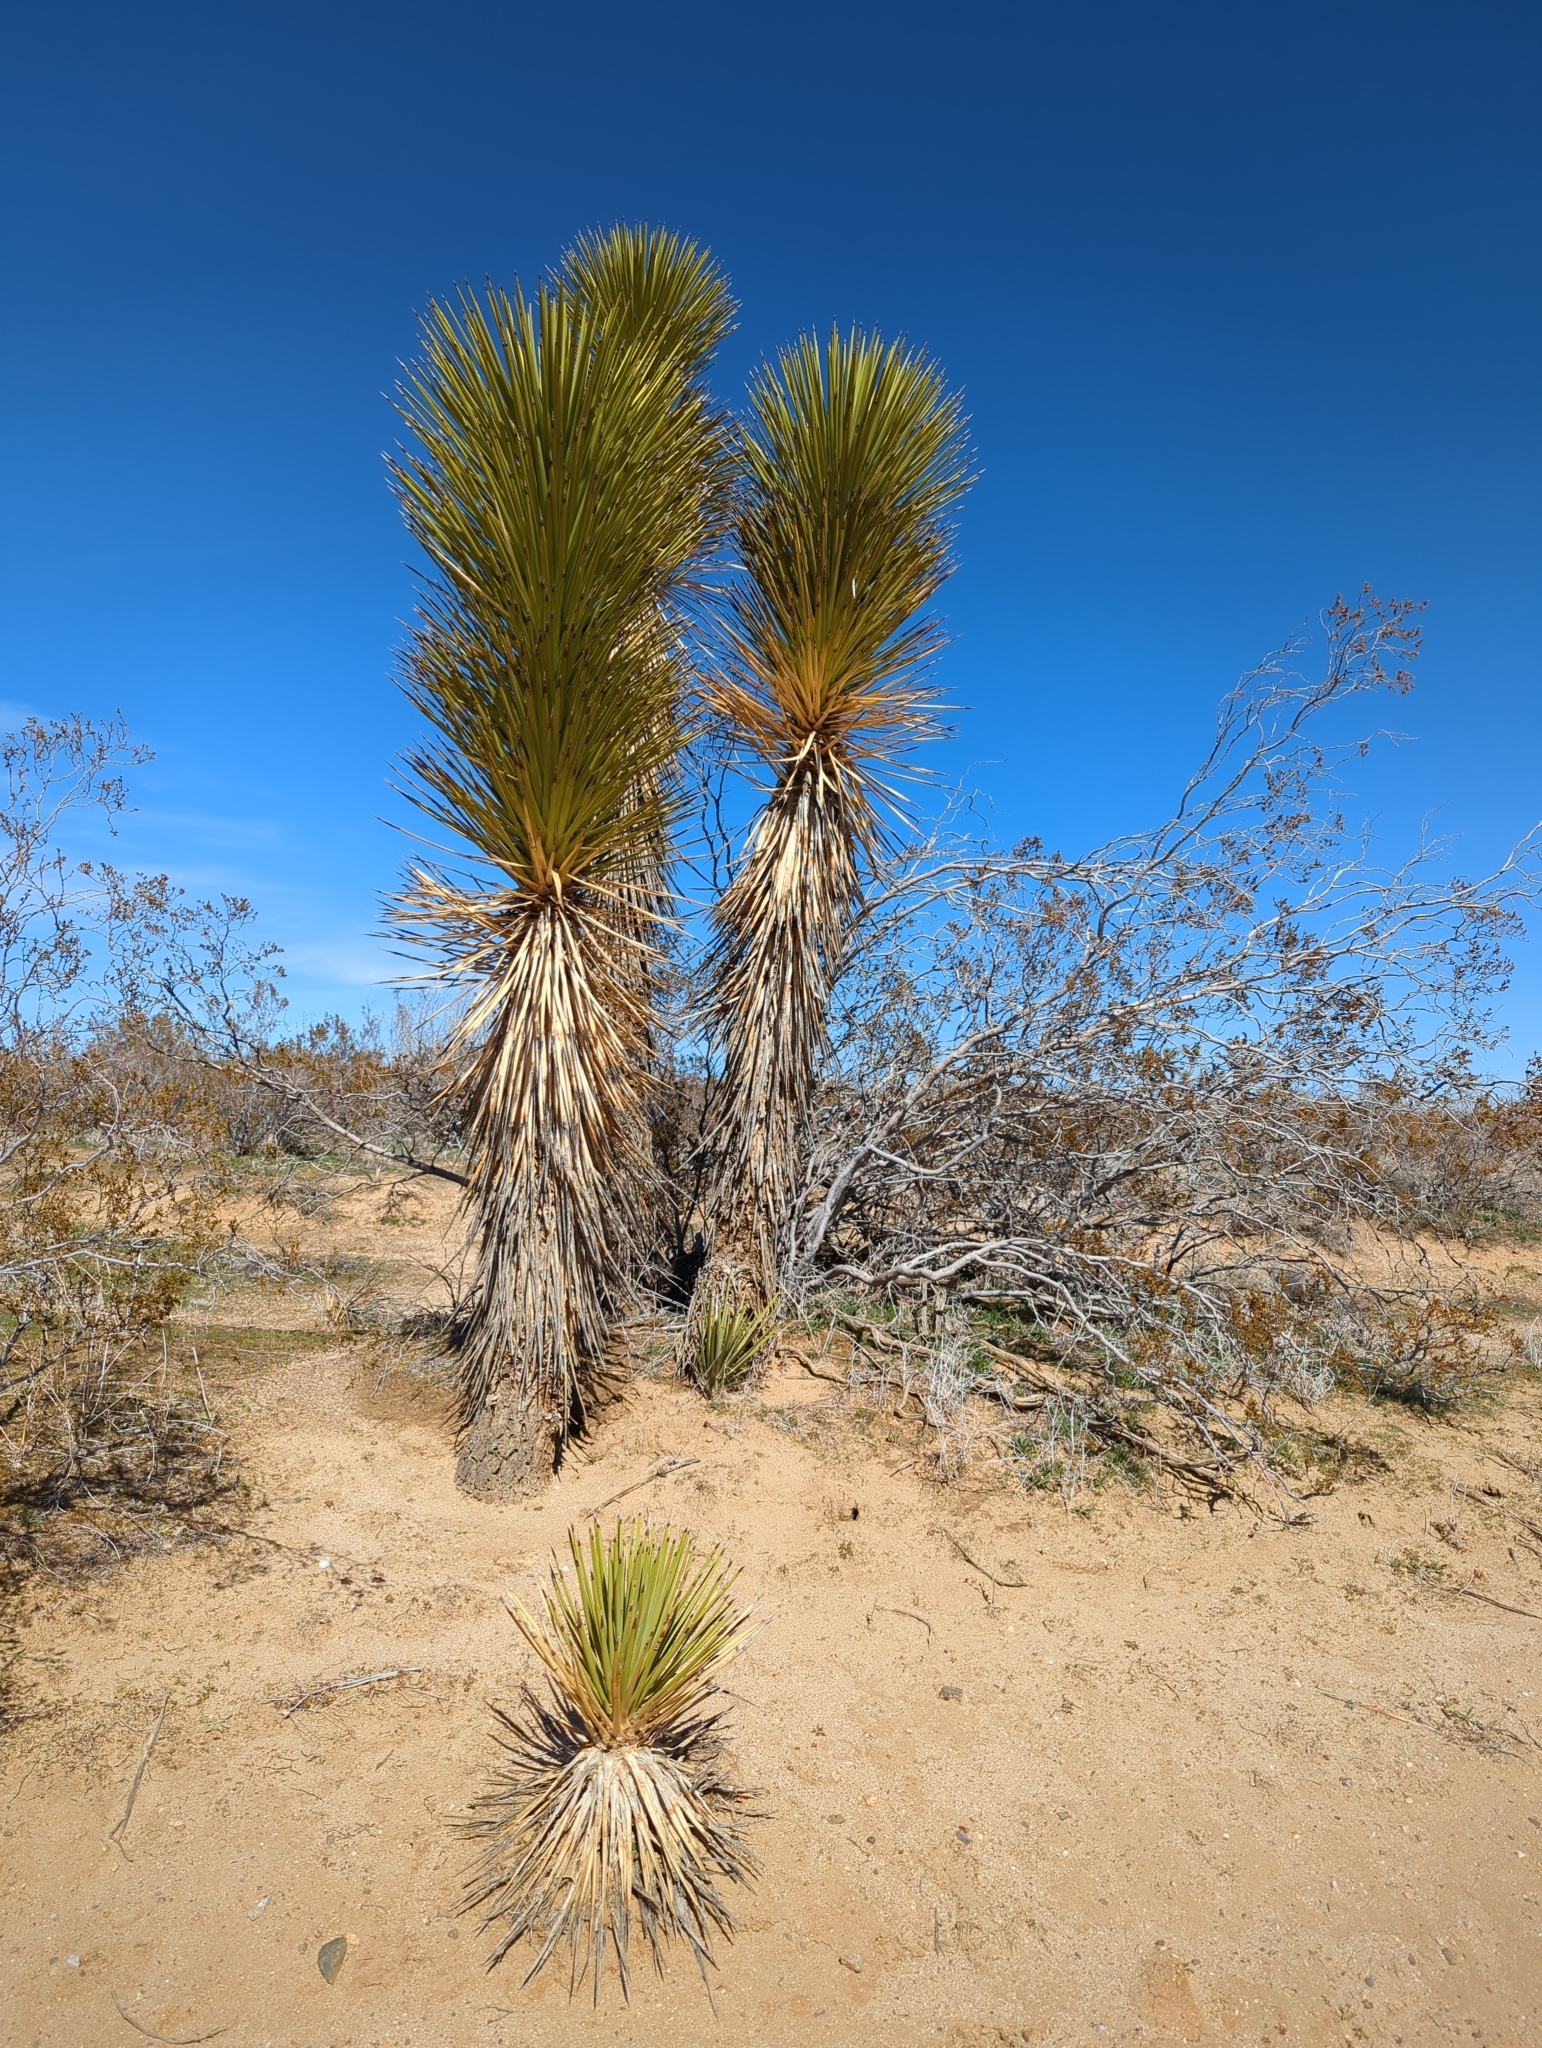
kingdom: Plantae
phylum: Tracheophyta
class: Liliopsida
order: Asparagales
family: Asparagaceae
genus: Yucca
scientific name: Yucca brevifolia
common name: Joshua tree
